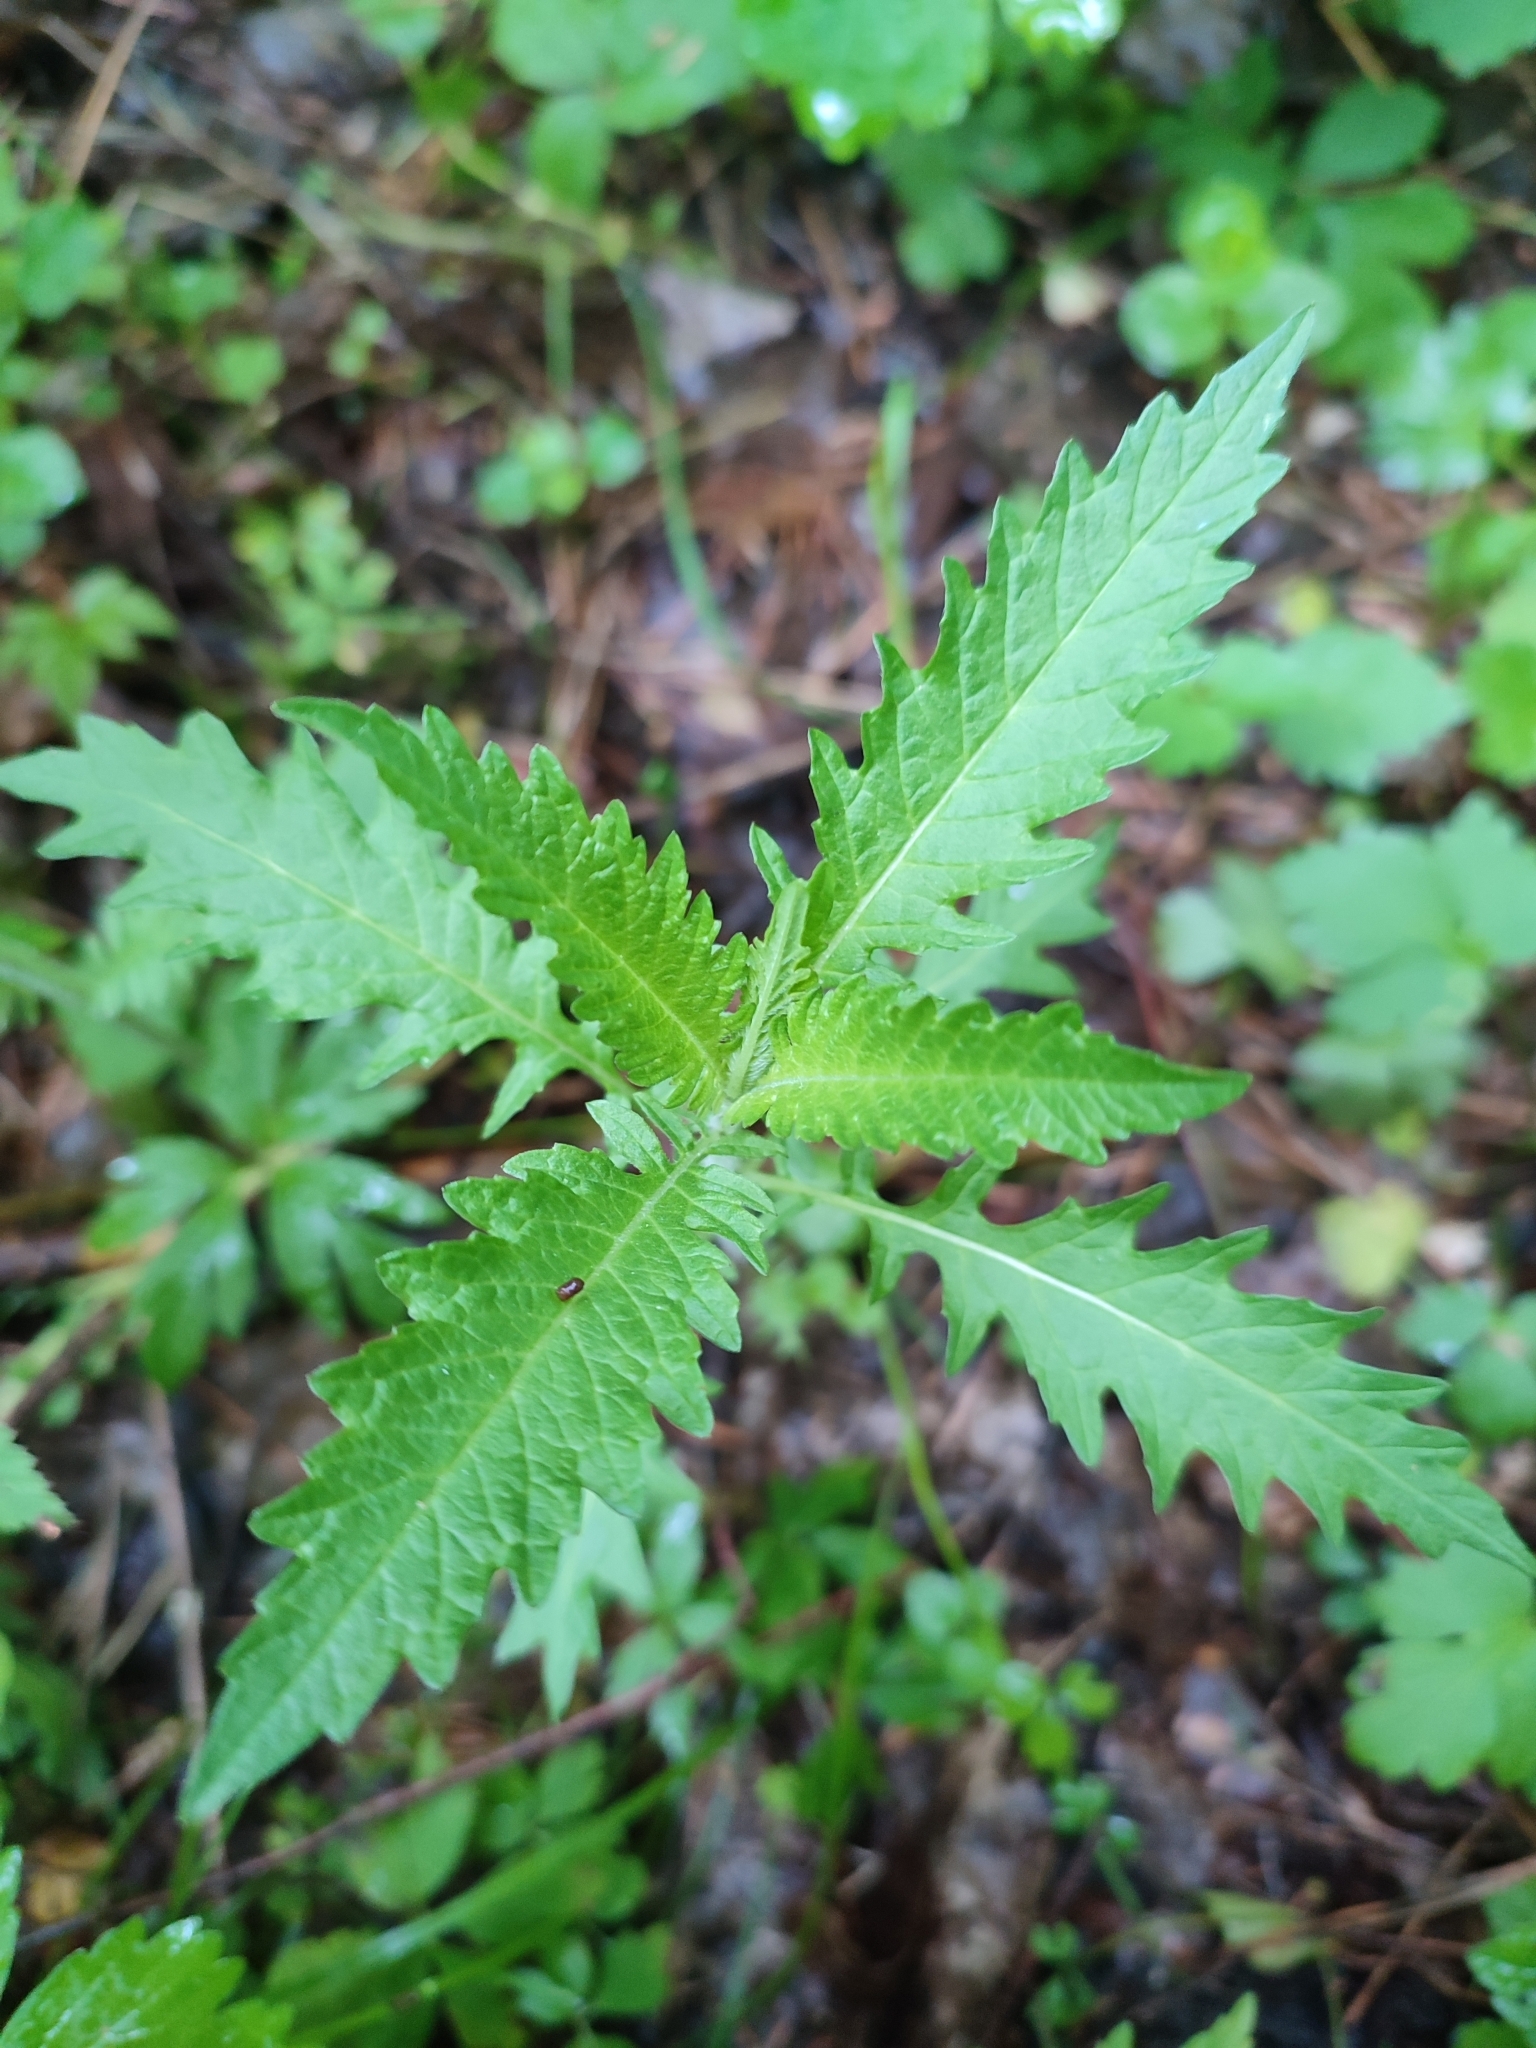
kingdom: Plantae
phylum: Tracheophyta
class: Magnoliopsida
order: Lamiales
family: Lamiaceae
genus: Lycopus
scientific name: Lycopus europaeus
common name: European bugleweed
